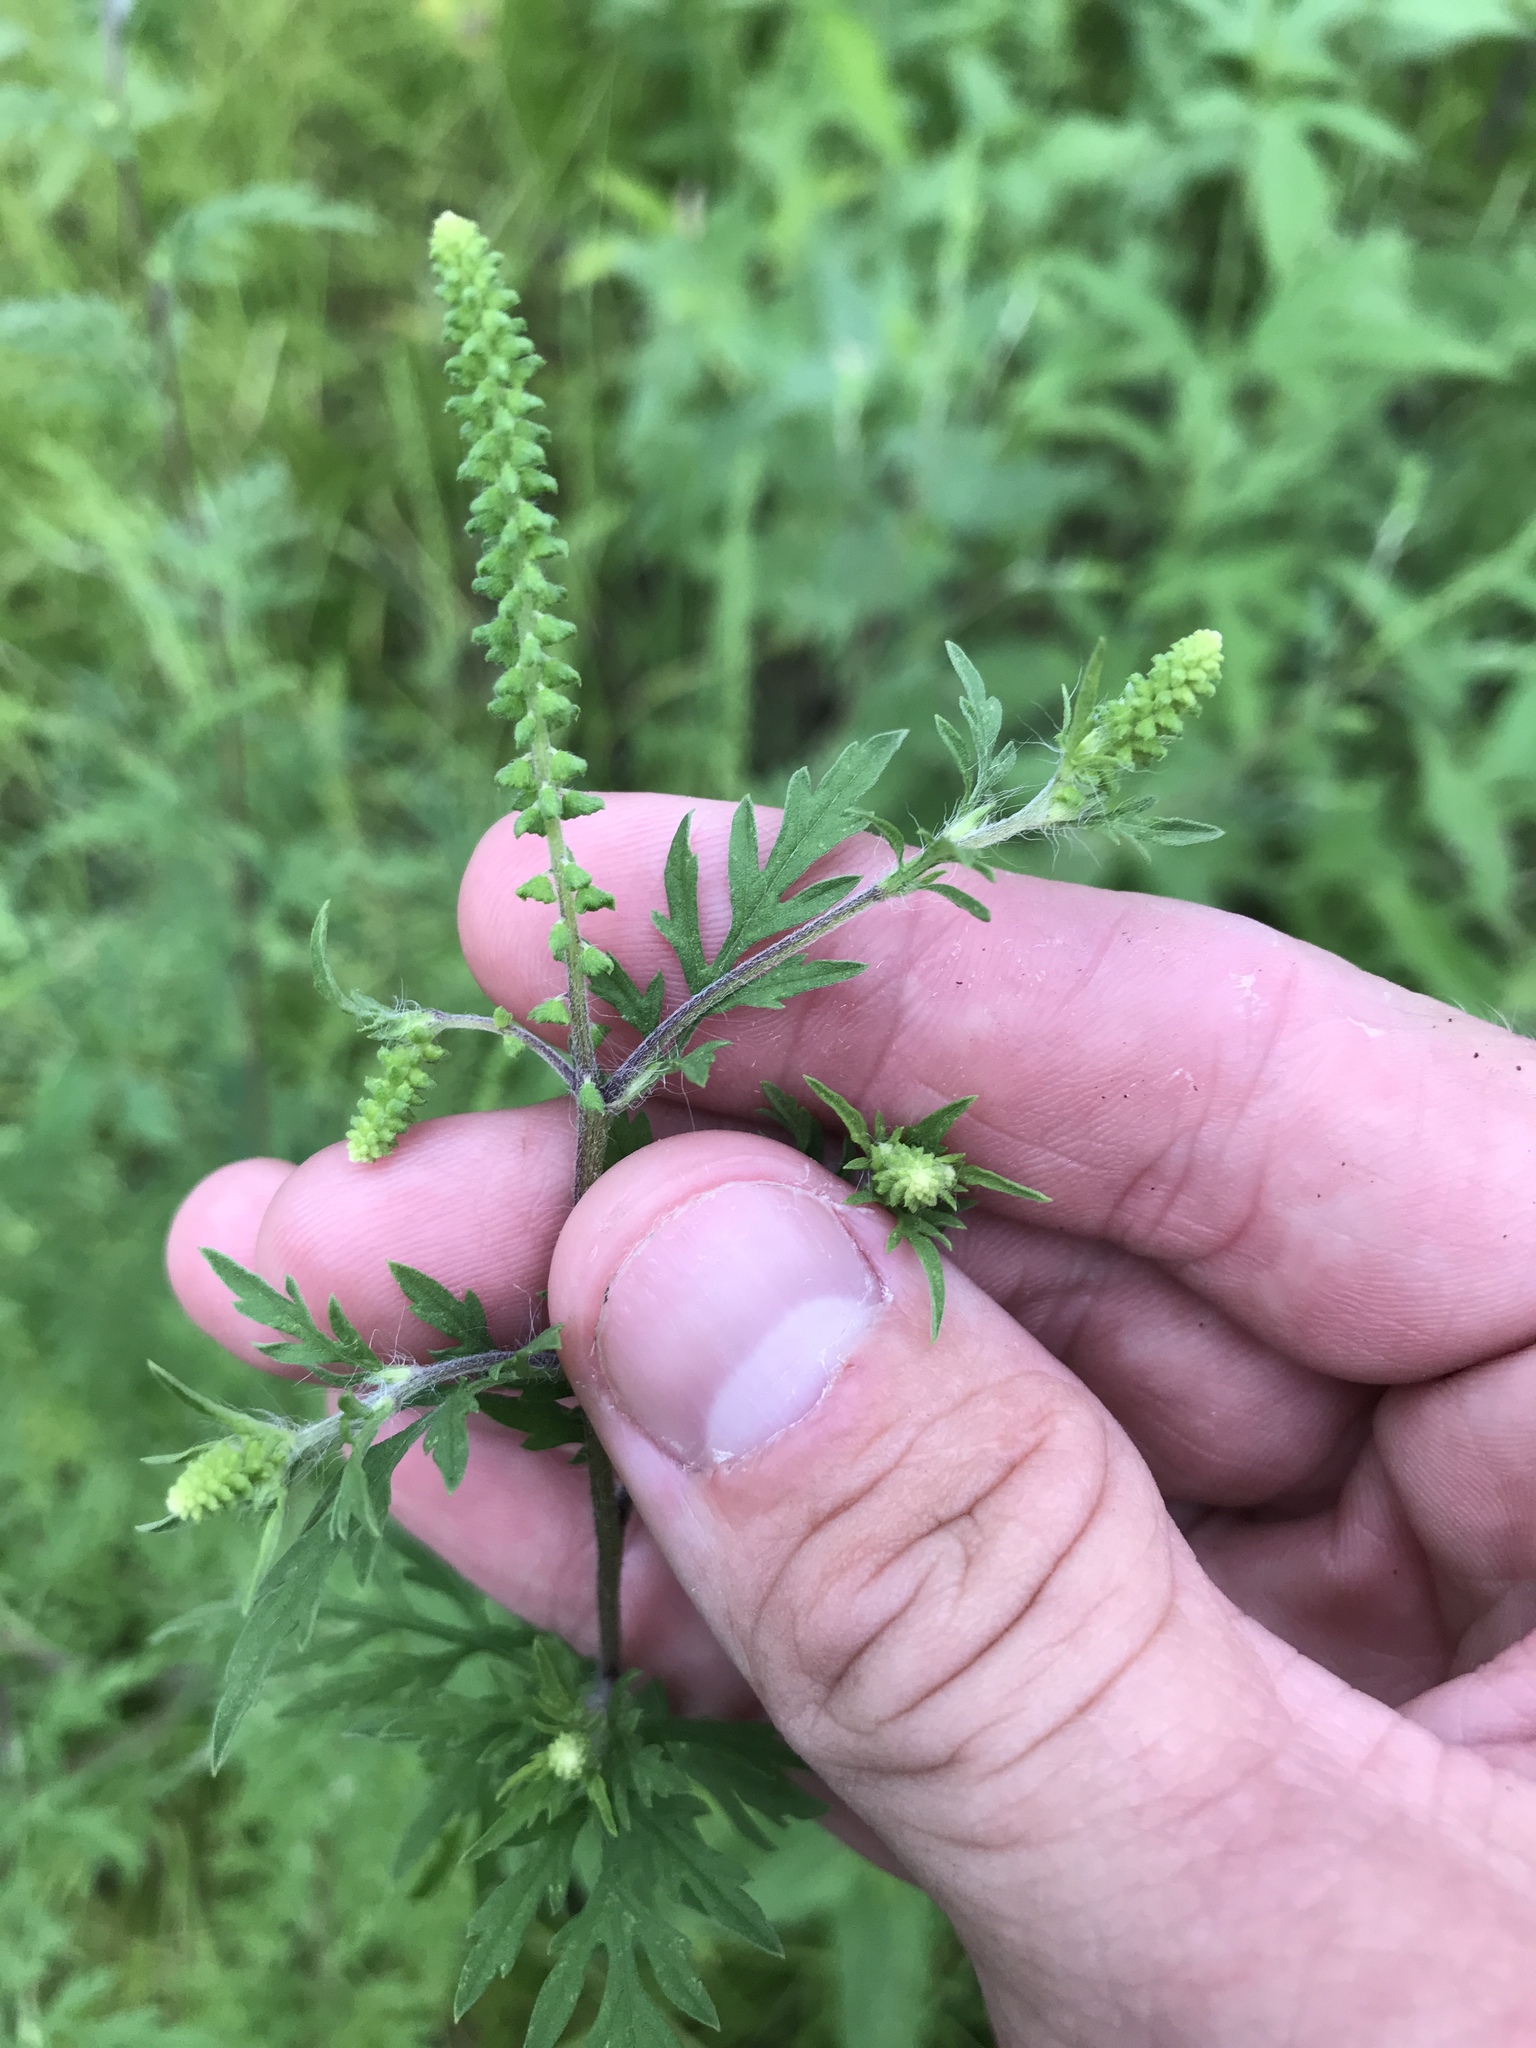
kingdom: Plantae
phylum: Tracheophyta
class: Magnoliopsida
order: Asterales
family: Asteraceae
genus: Ambrosia
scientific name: Ambrosia artemisiifolia
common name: Annual ragweed
